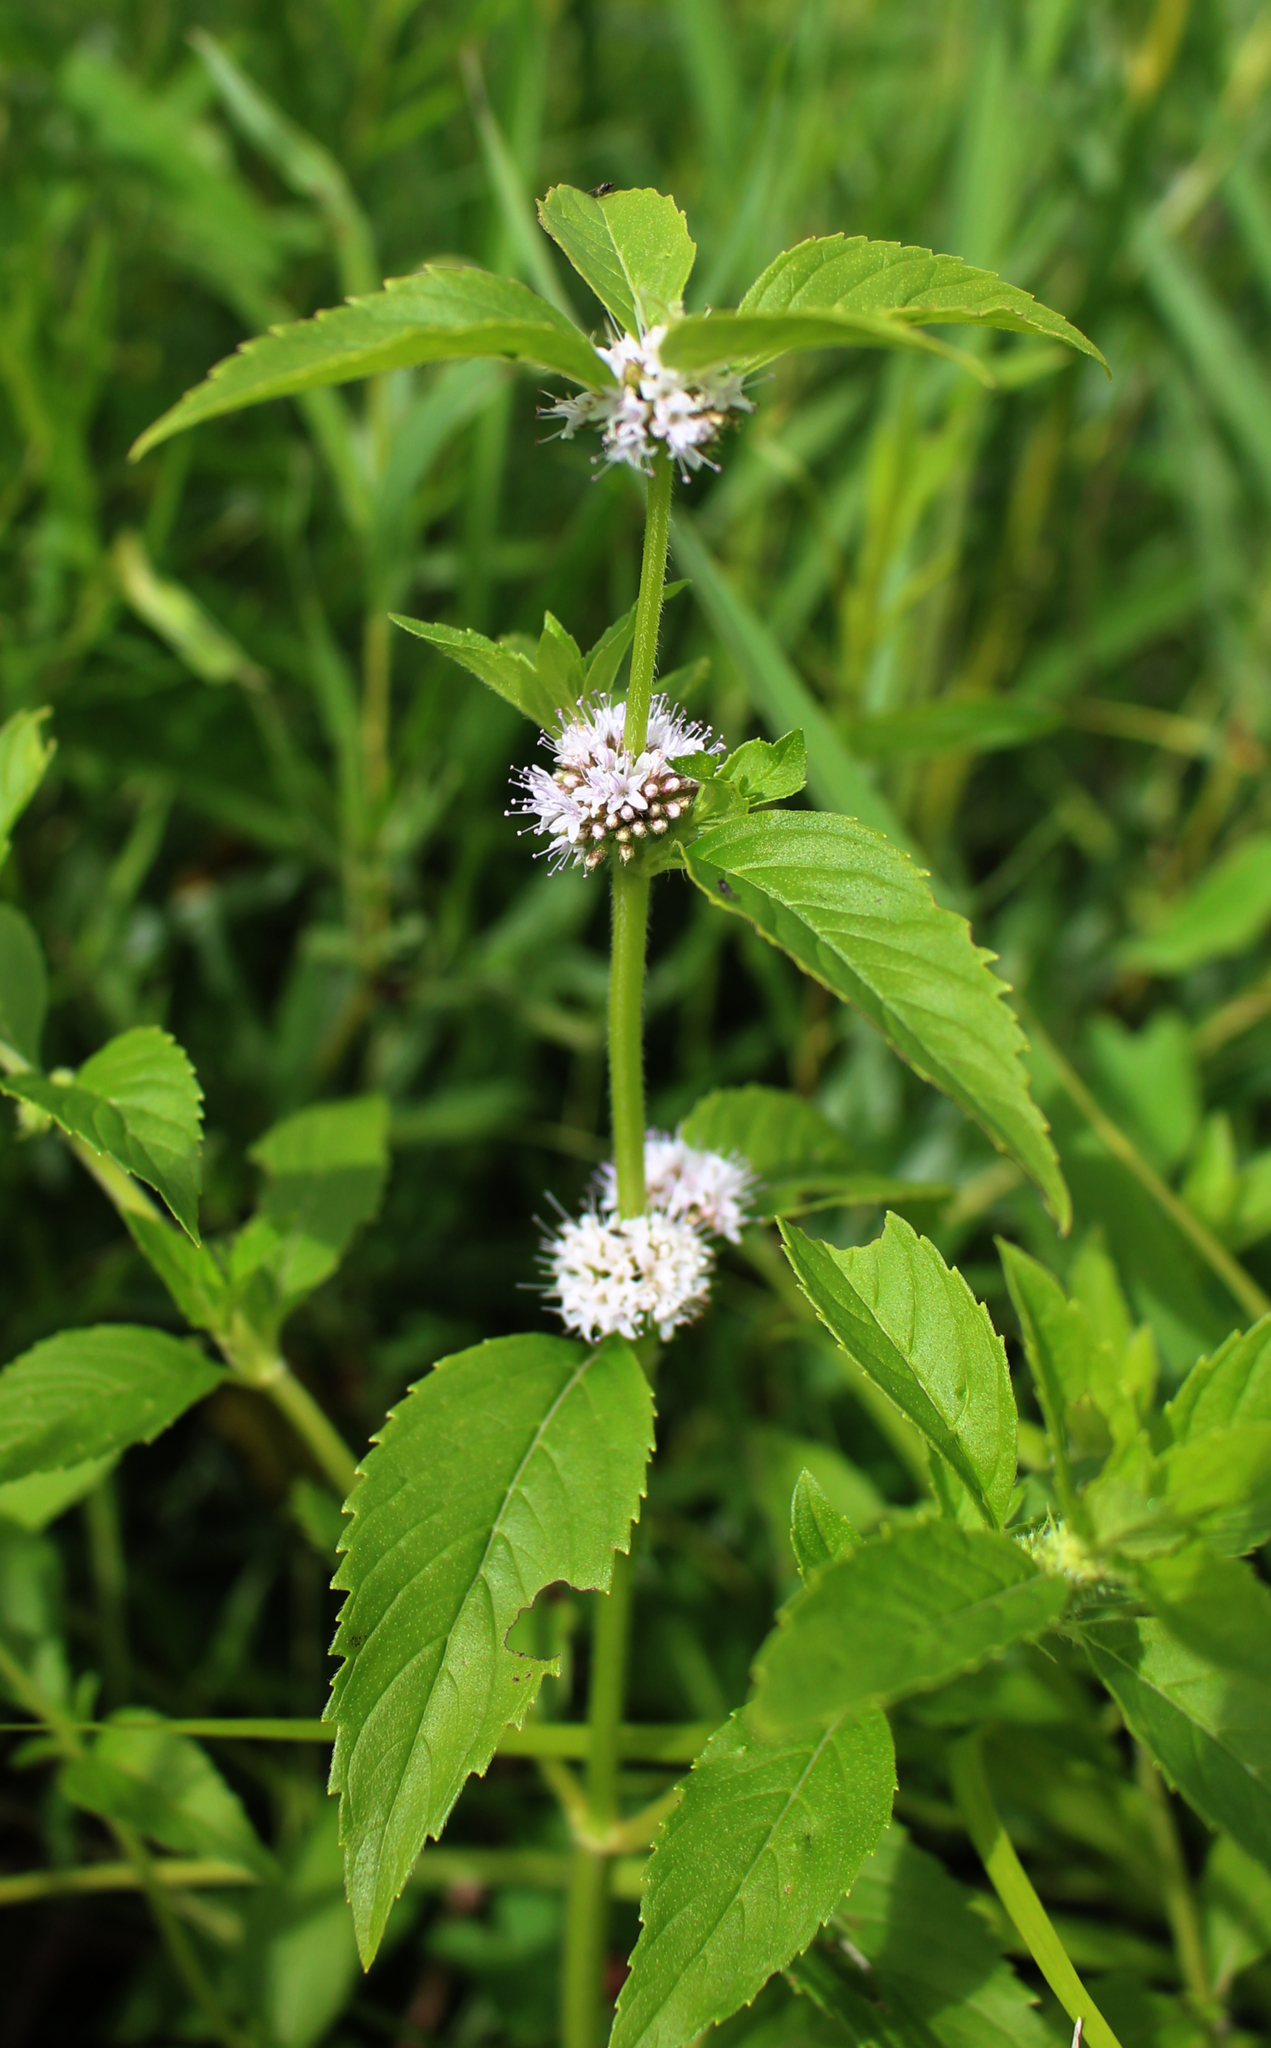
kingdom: Plantae
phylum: Tracheophyta
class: Magnoliopsida
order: Lamiales
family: Lamiaceae
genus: Mentha
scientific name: Mentha arvensis
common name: Corn mint
